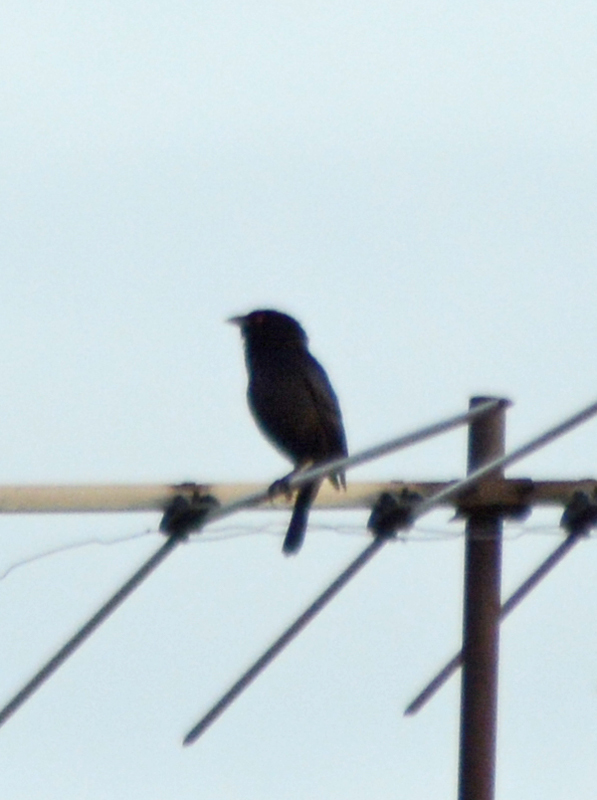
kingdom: Animalia
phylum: Chordata
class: Aves
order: Passeriformes
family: Icteridae
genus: Molothrus
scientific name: Molothrus aeneus
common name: Bronzed cowbird
